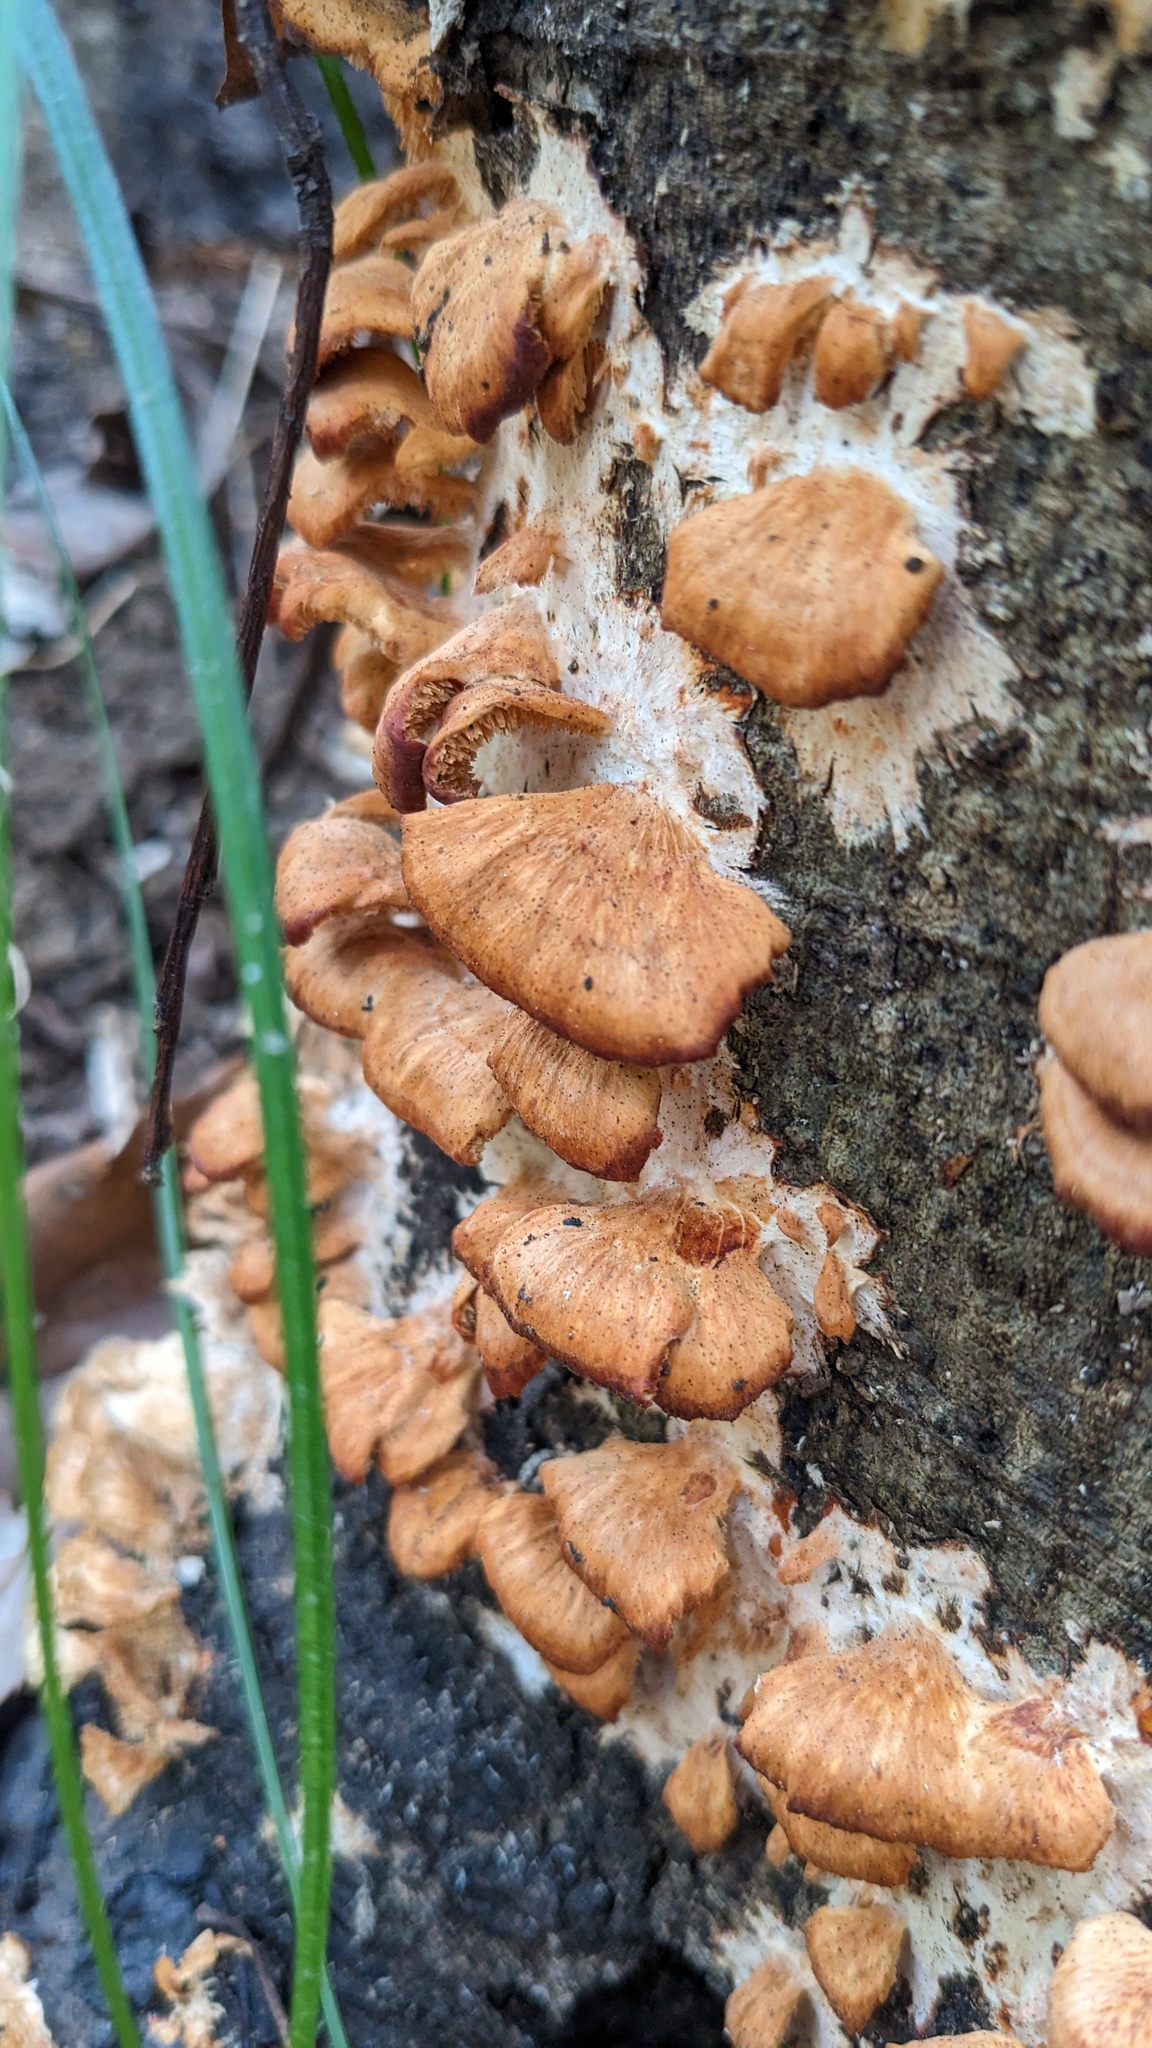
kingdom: Fungi
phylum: Basidiomycota
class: Agaricomycetes
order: Polyporales
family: Irpicaceae
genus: Irpex
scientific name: Irpex consors
